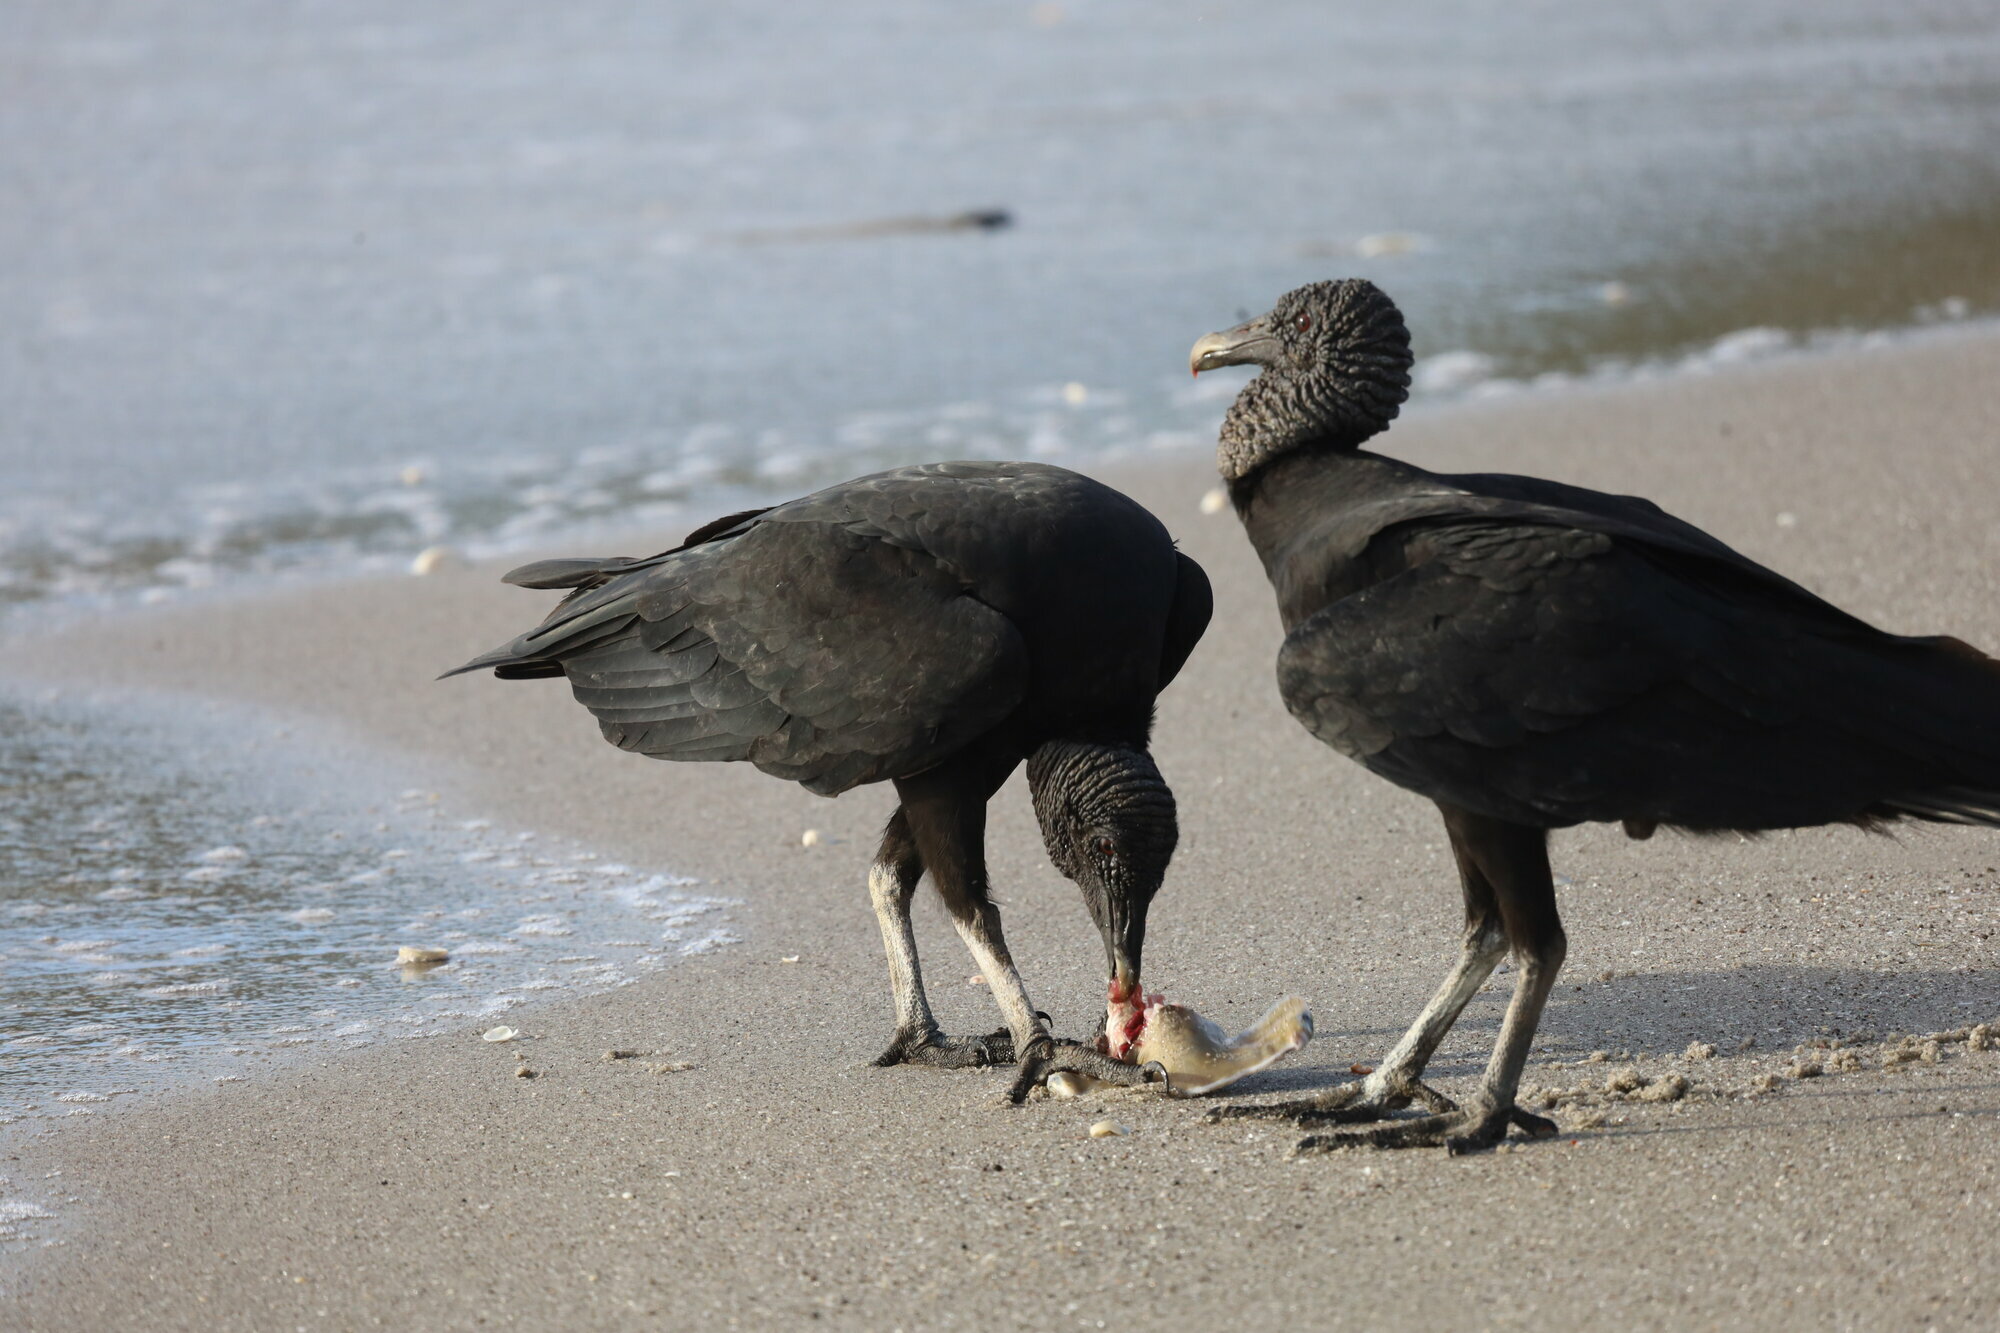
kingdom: Animalia
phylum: Chordata
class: Aves
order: Accipitriformes
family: Cathartidae
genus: Coragyps
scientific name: Coragyps atratus
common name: Black vulture
